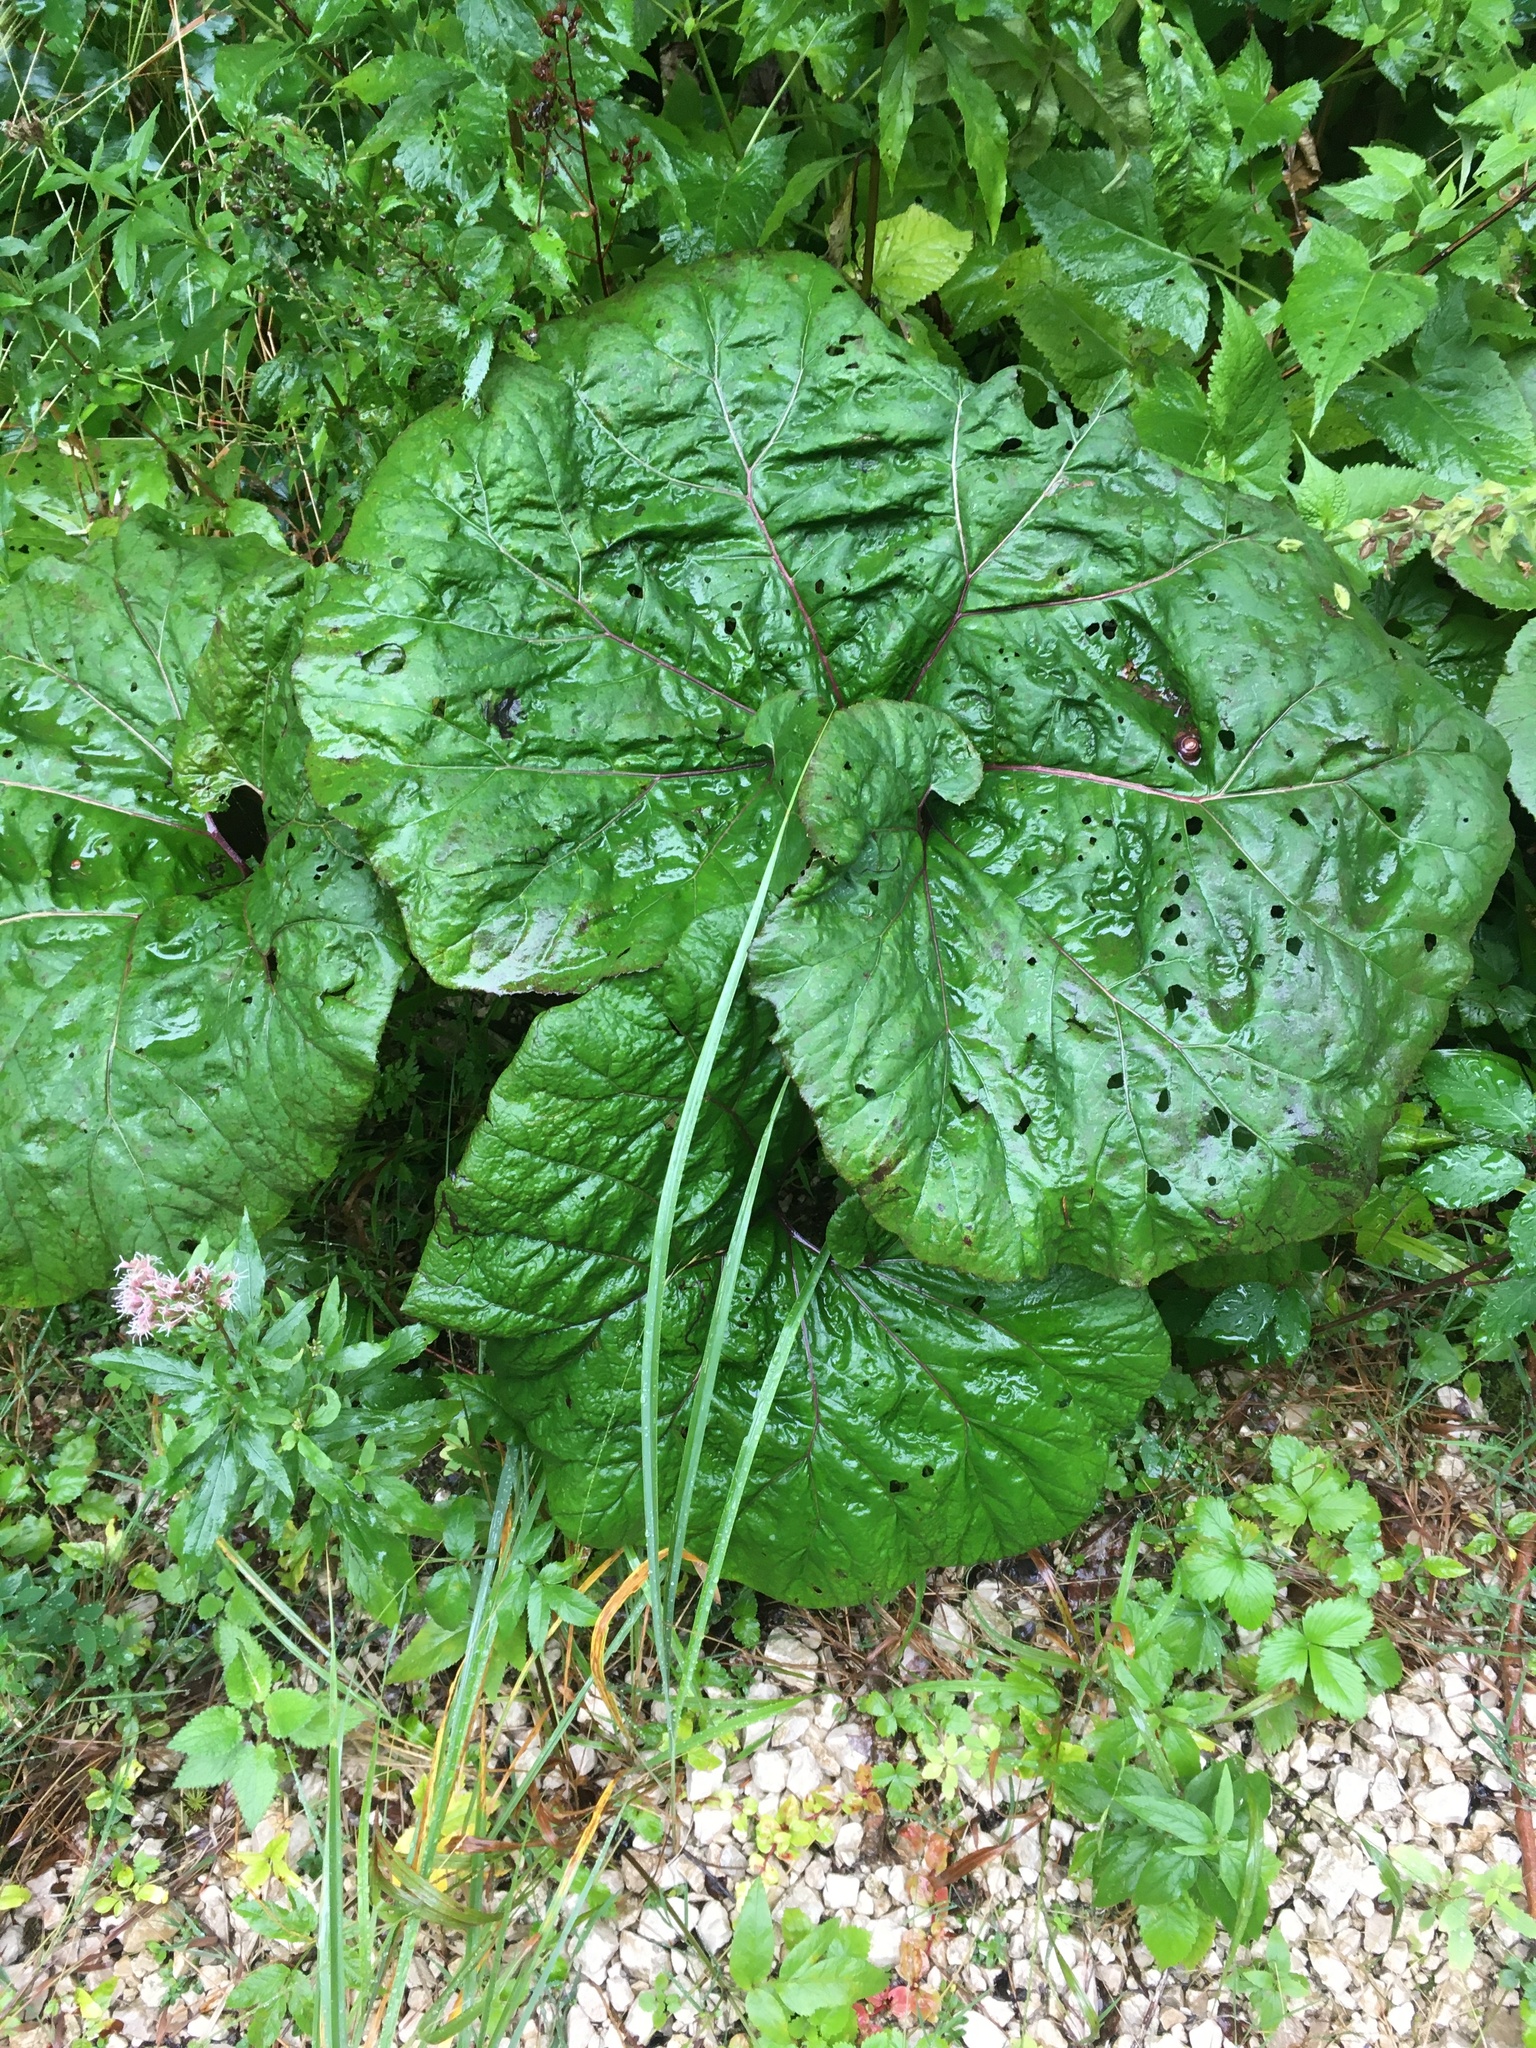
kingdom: Plantae
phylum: Tracheophyta
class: Magnoliopsida
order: Asterales
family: Asteraceae
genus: Petasites
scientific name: Petasites hybridus
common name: Butterbur
